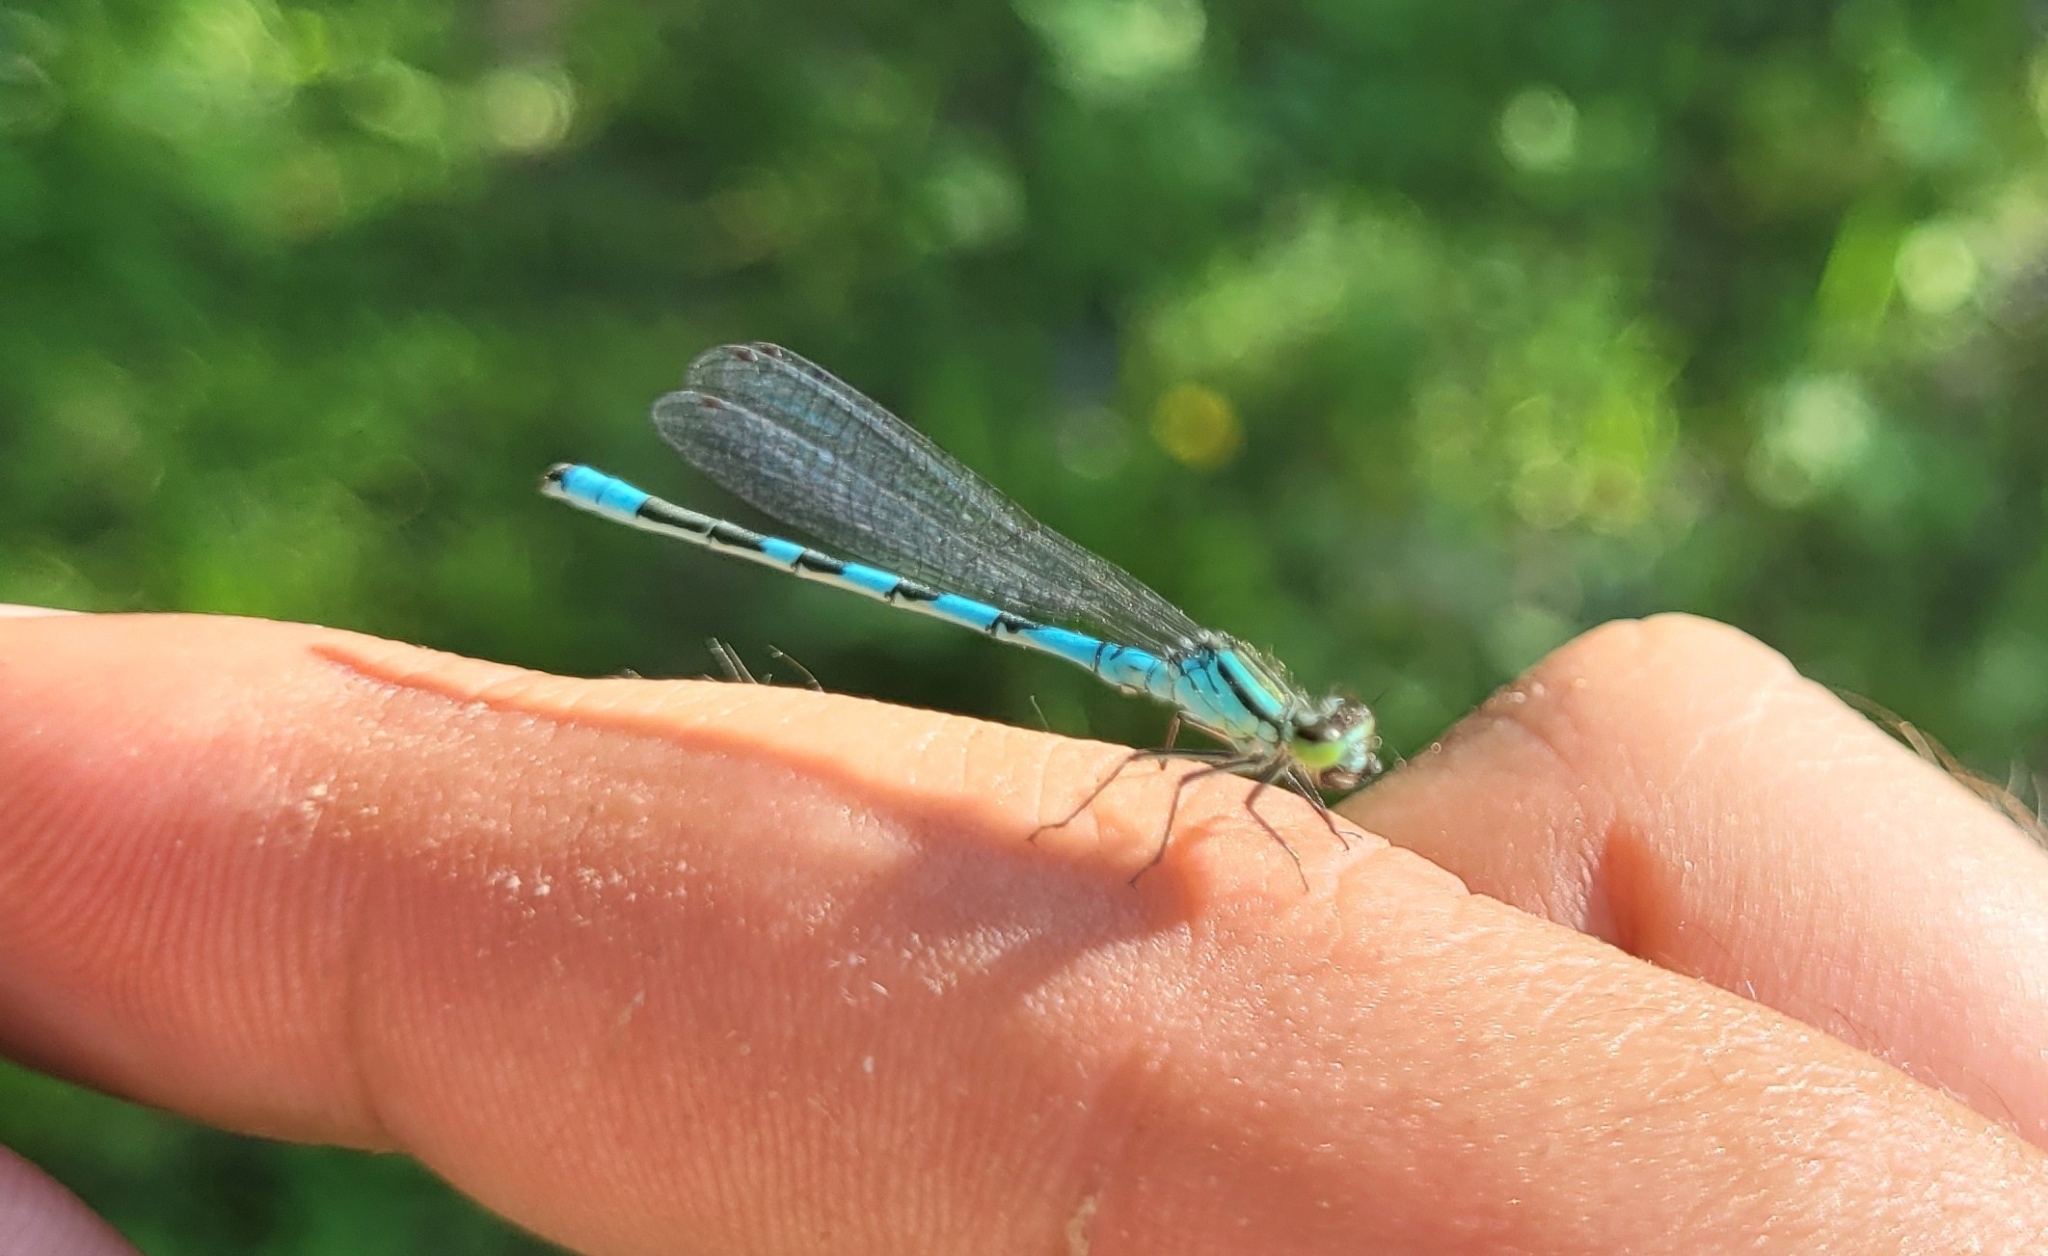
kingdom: Animalia
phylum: Arthropoda
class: Insecta
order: Odonata
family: Coenagrionidae
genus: Coenagrion
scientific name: Coenagrion hastulatum
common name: Spearhead bluet
